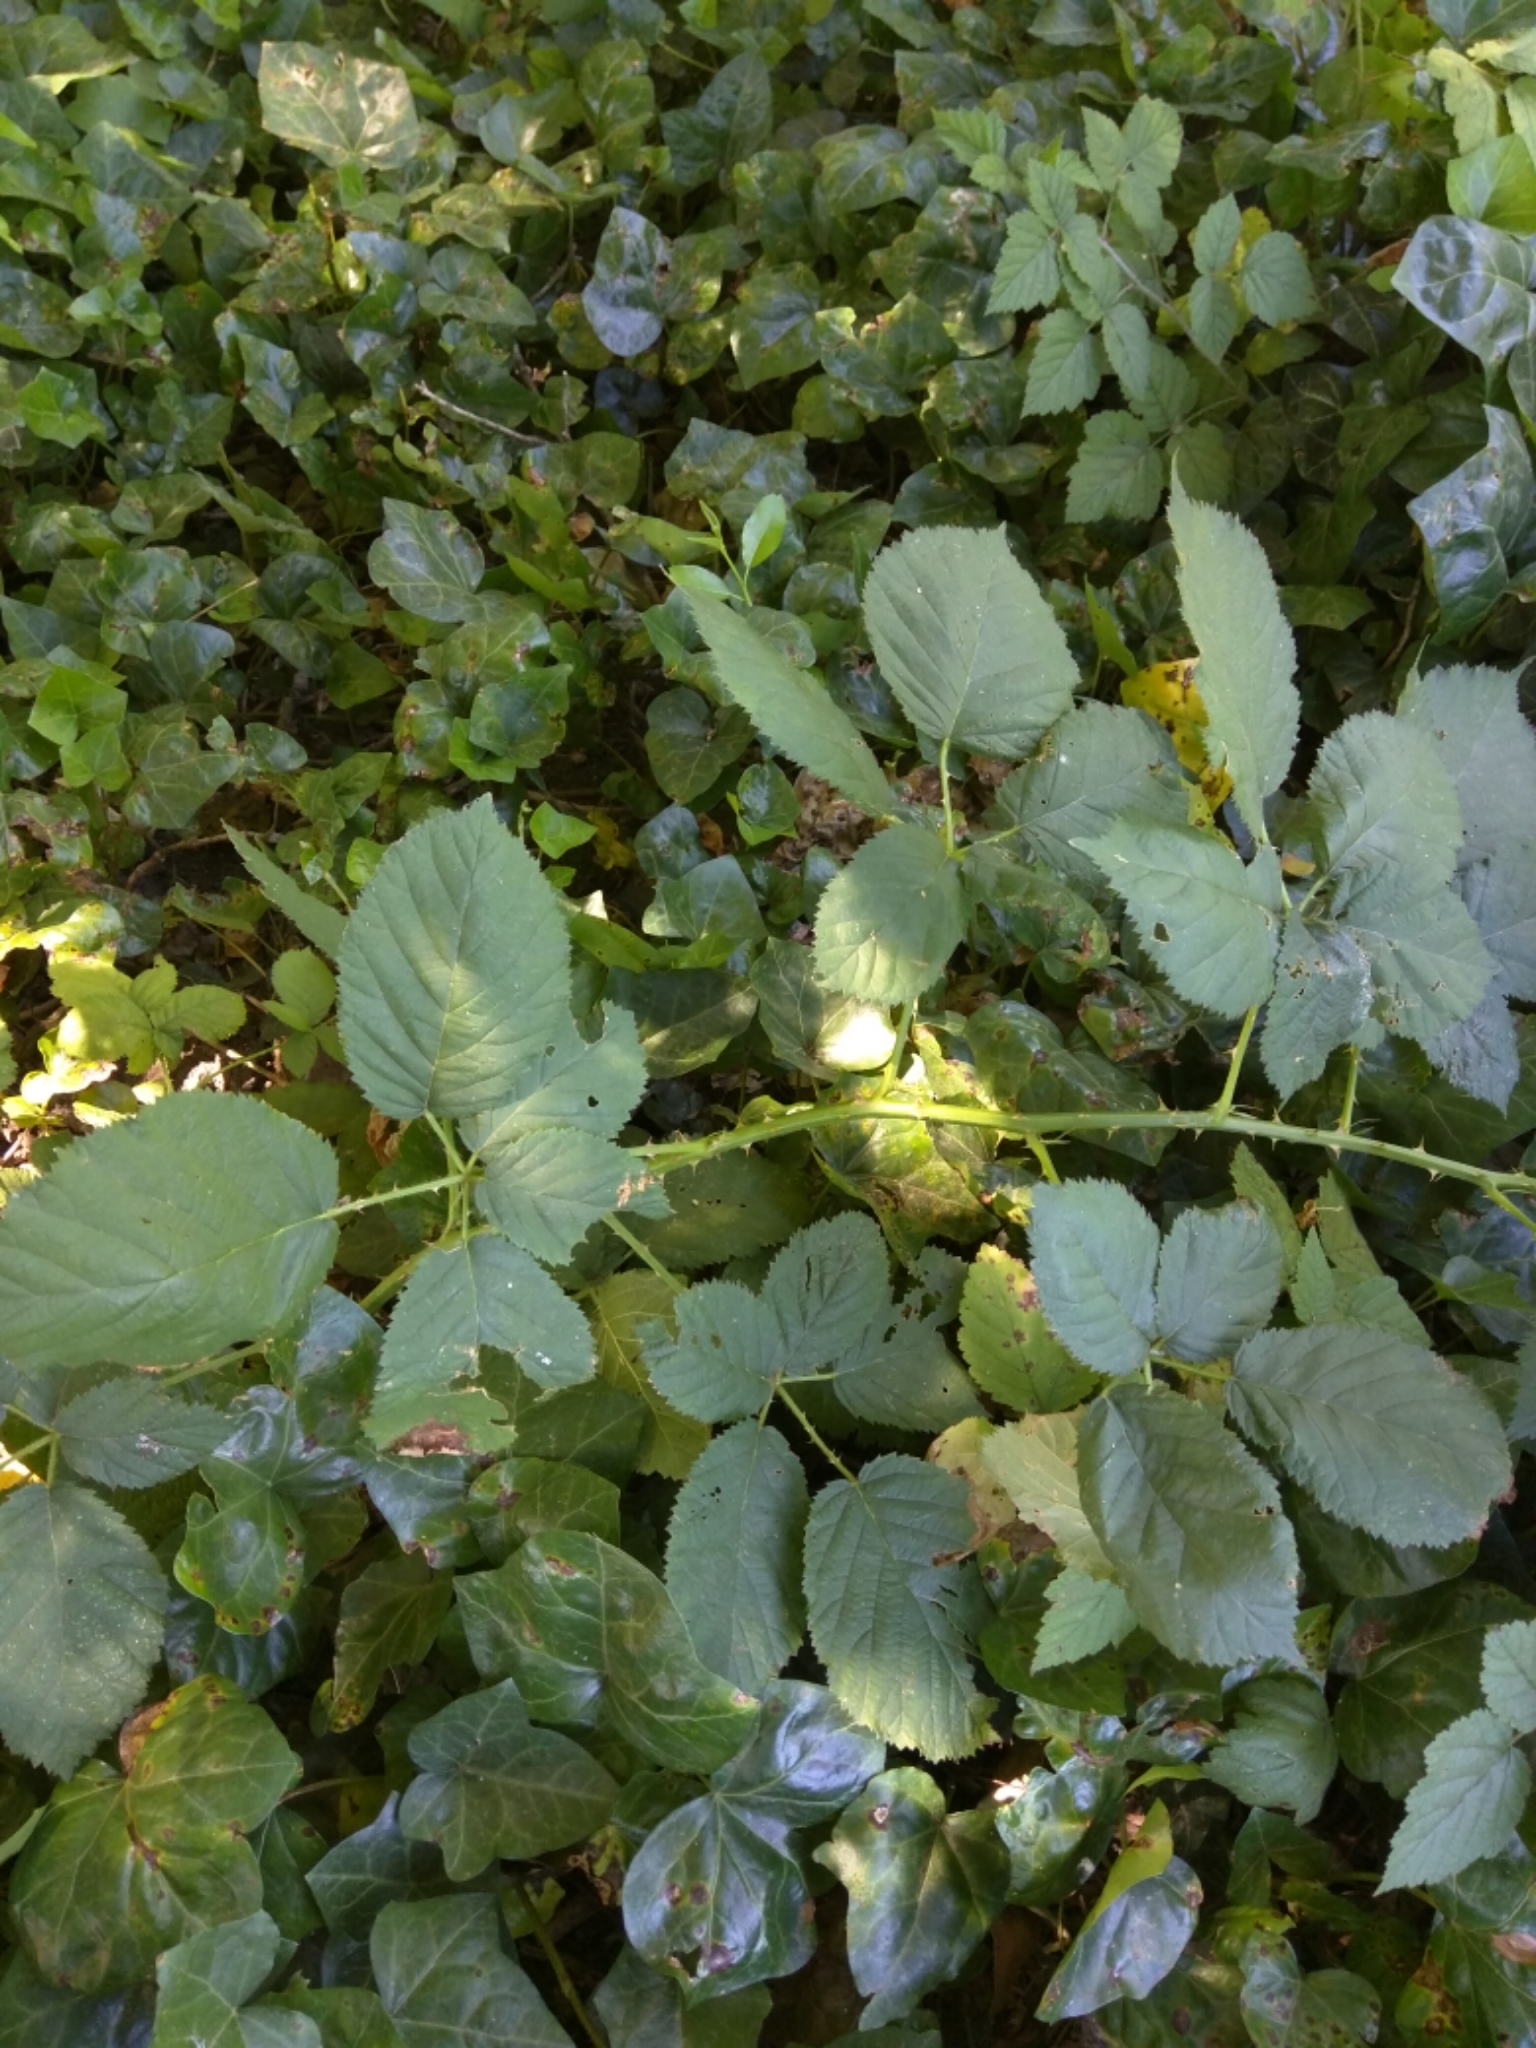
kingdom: Plantae
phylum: Tracheophyta
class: Magnoliopsida
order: Rosales
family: Rosaceae
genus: Rubus
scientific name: Rubus armeniacus
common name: Himalayan blackberry
